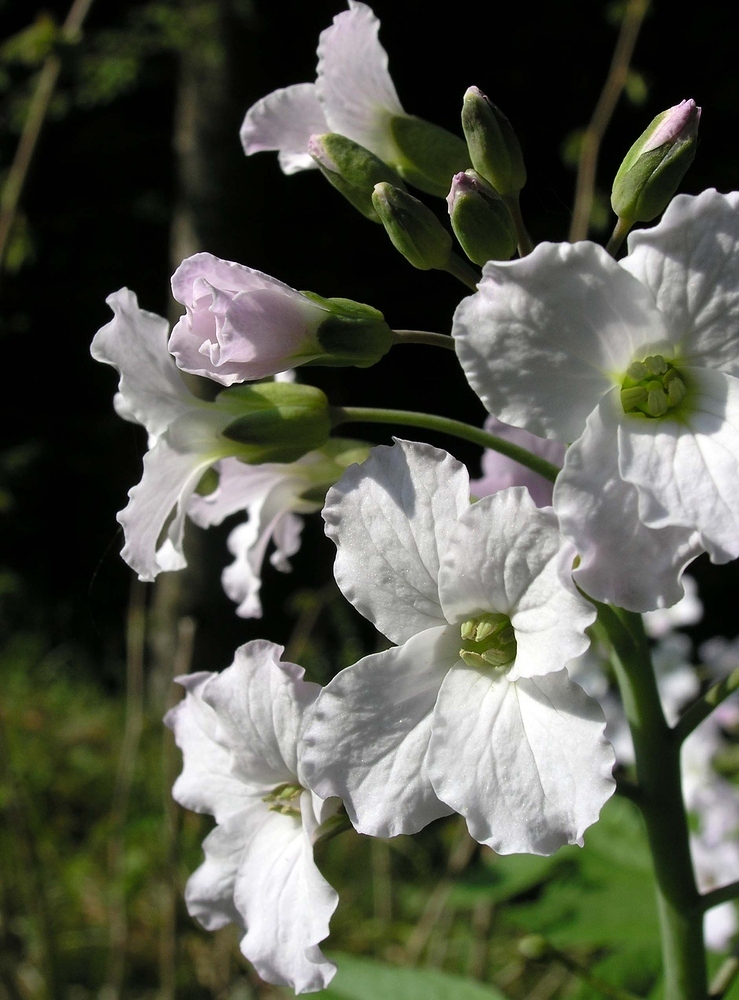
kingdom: Plantae
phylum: Tracheophyta
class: Magnoliopsida
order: Brassicales
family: Brassicaceae
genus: Cardamine
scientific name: Cardamine heptaphylla
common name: Pinnate coralroot
